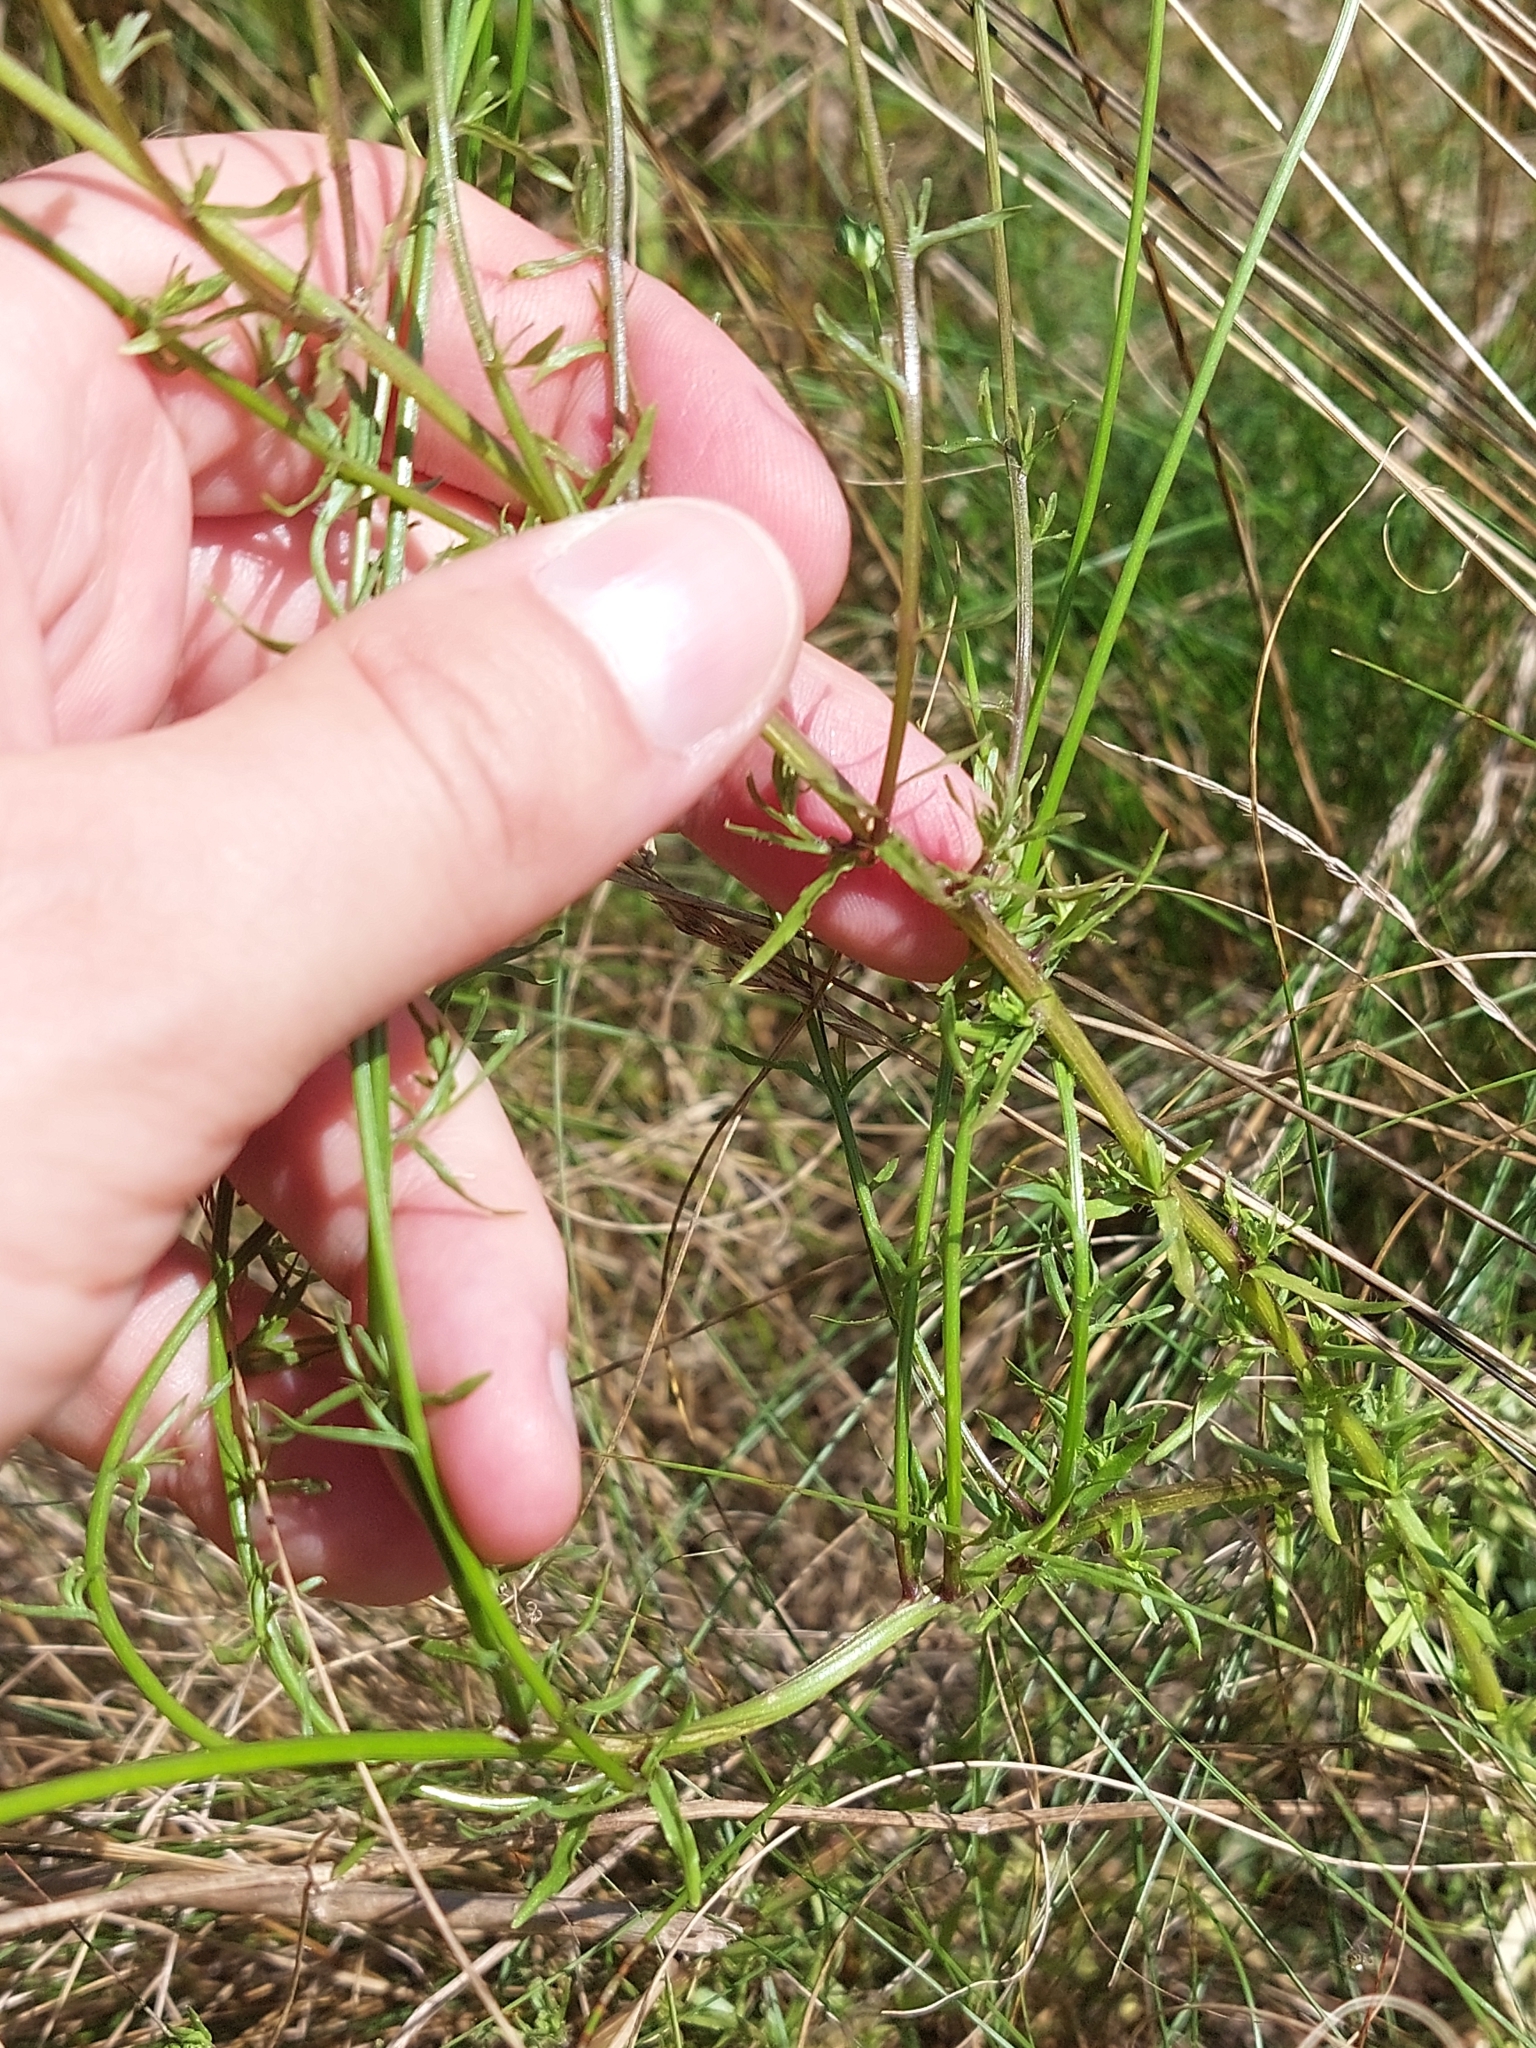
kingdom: Plantae
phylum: Tracheophyta
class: Magnoliopsida
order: Asterales
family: Campanulaceae
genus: Jasione
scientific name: Jasione montana
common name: Sheep's-bit
